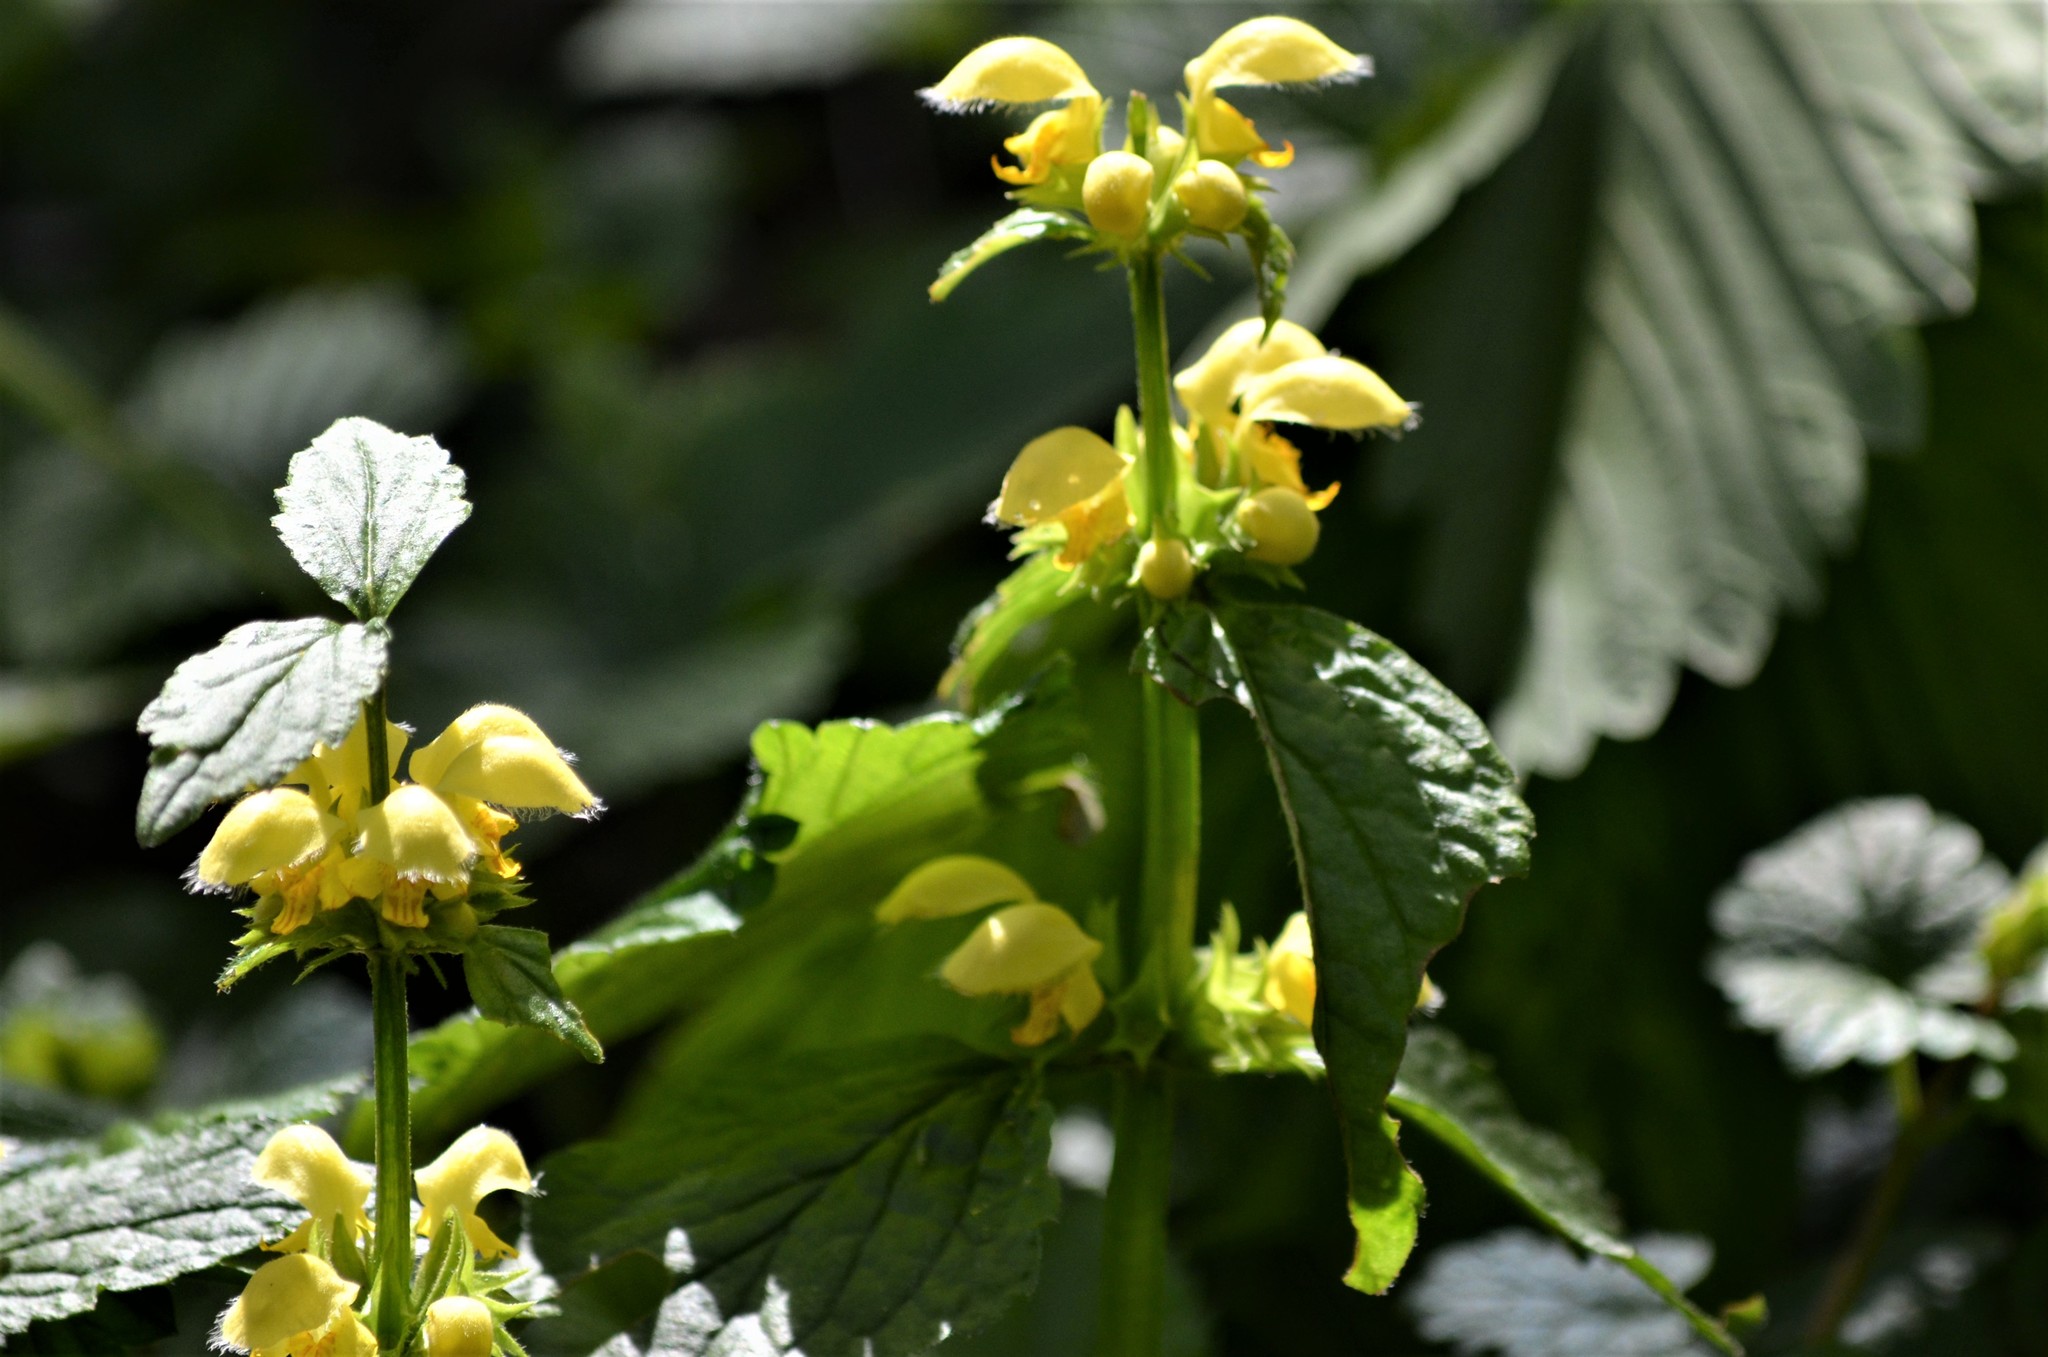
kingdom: Plantae
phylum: Tracheophyta
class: Magnoliopsida
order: Lamiales
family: Lamiaceae
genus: Lamium
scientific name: Lamium galeobdolon
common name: Yellow archangel
